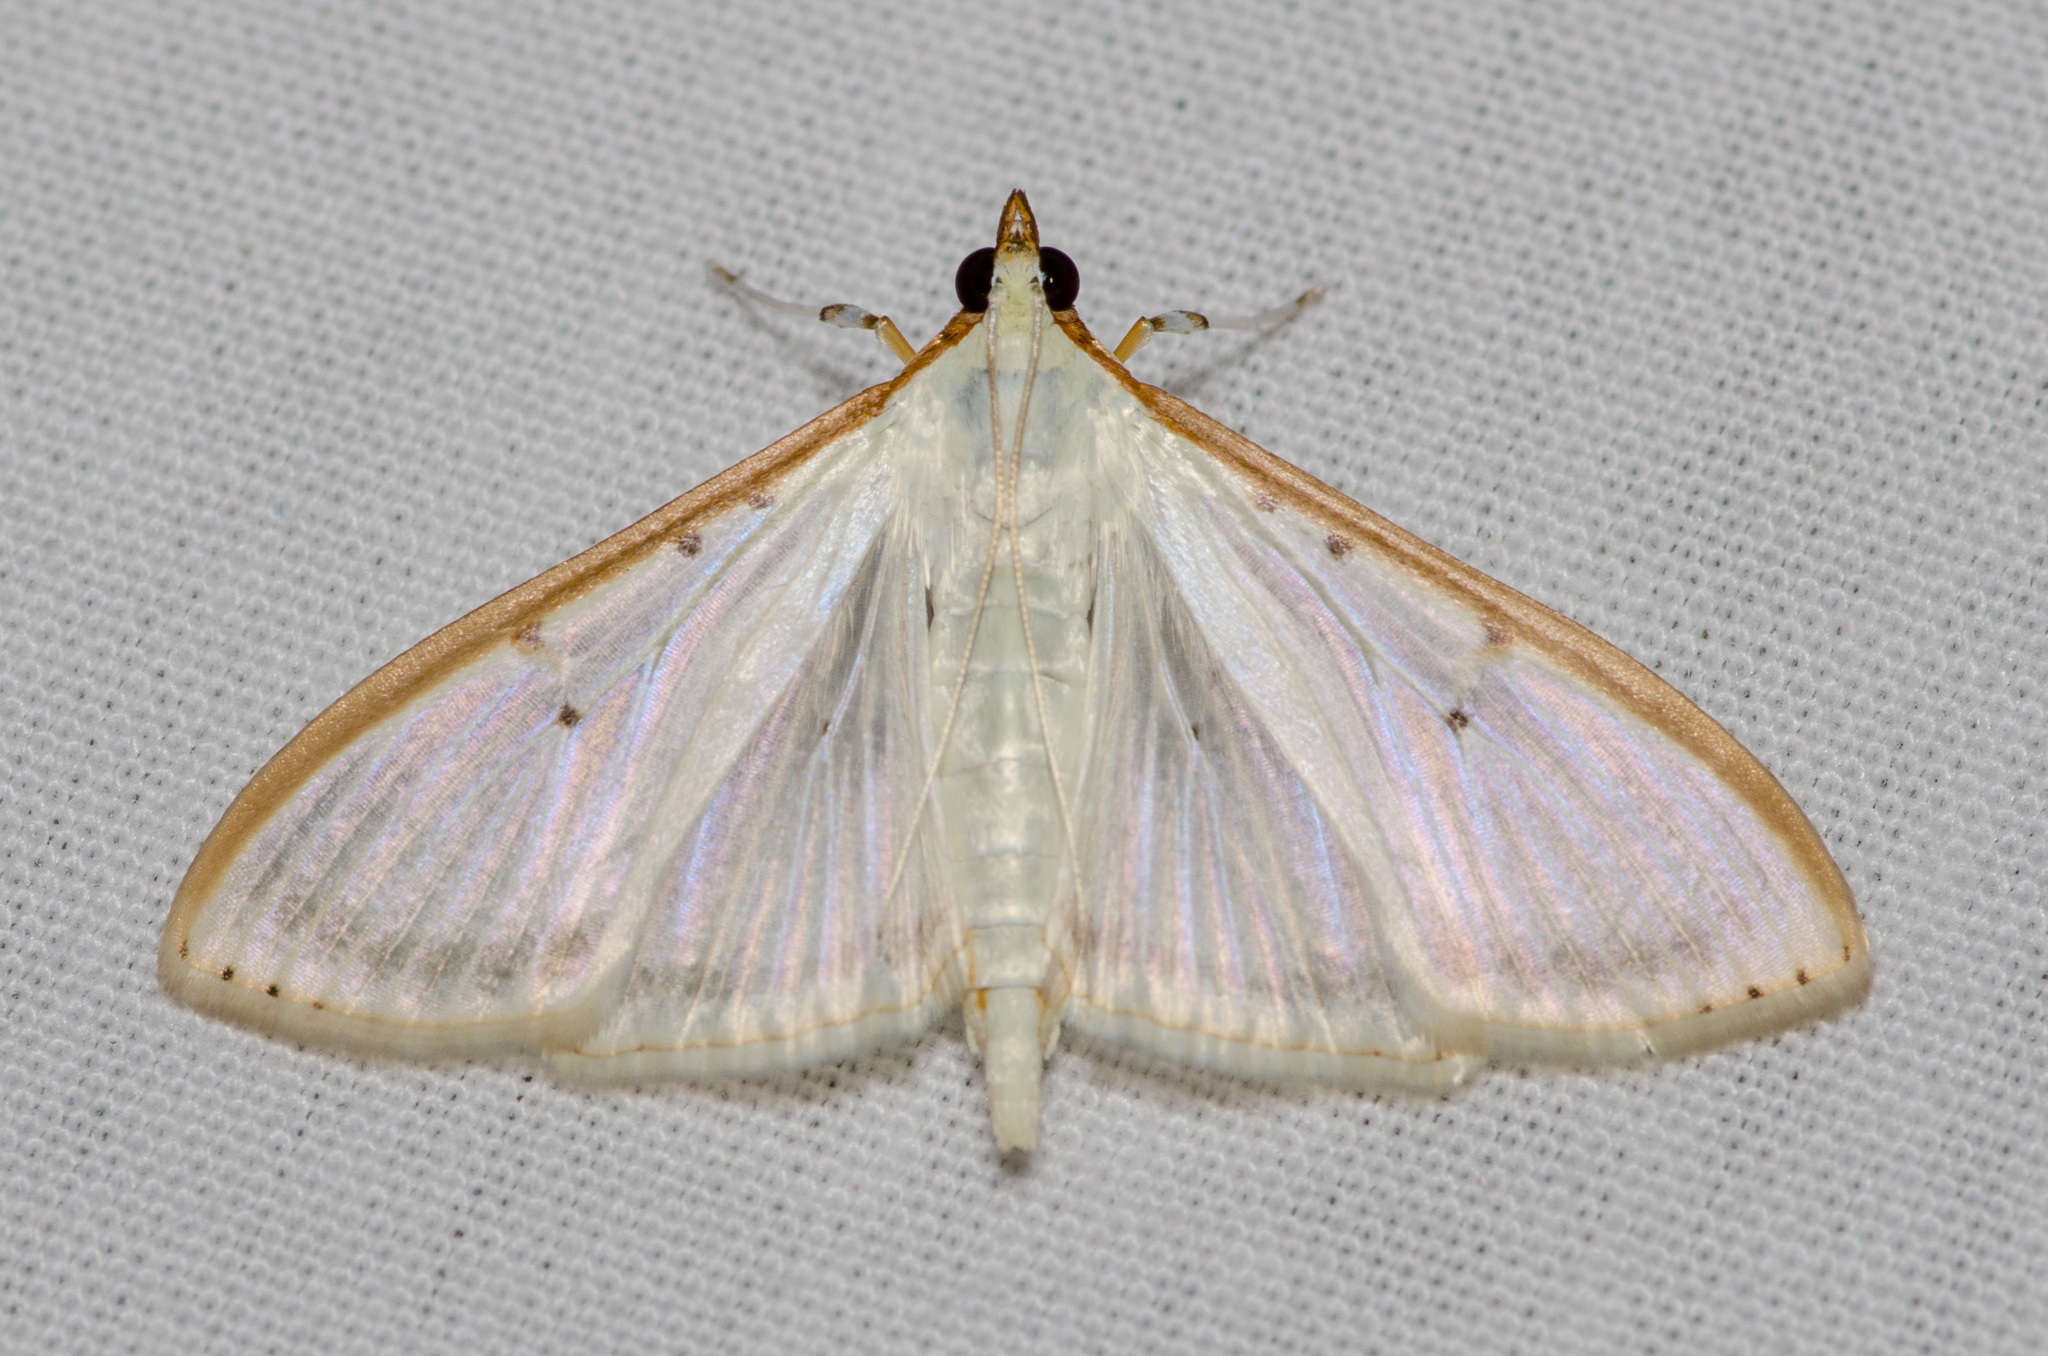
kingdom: Animalia
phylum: Arthropoda
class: Insecta
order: Lepidoptera
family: Crambidae
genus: Palpita
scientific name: Palpita quadristigmalis
